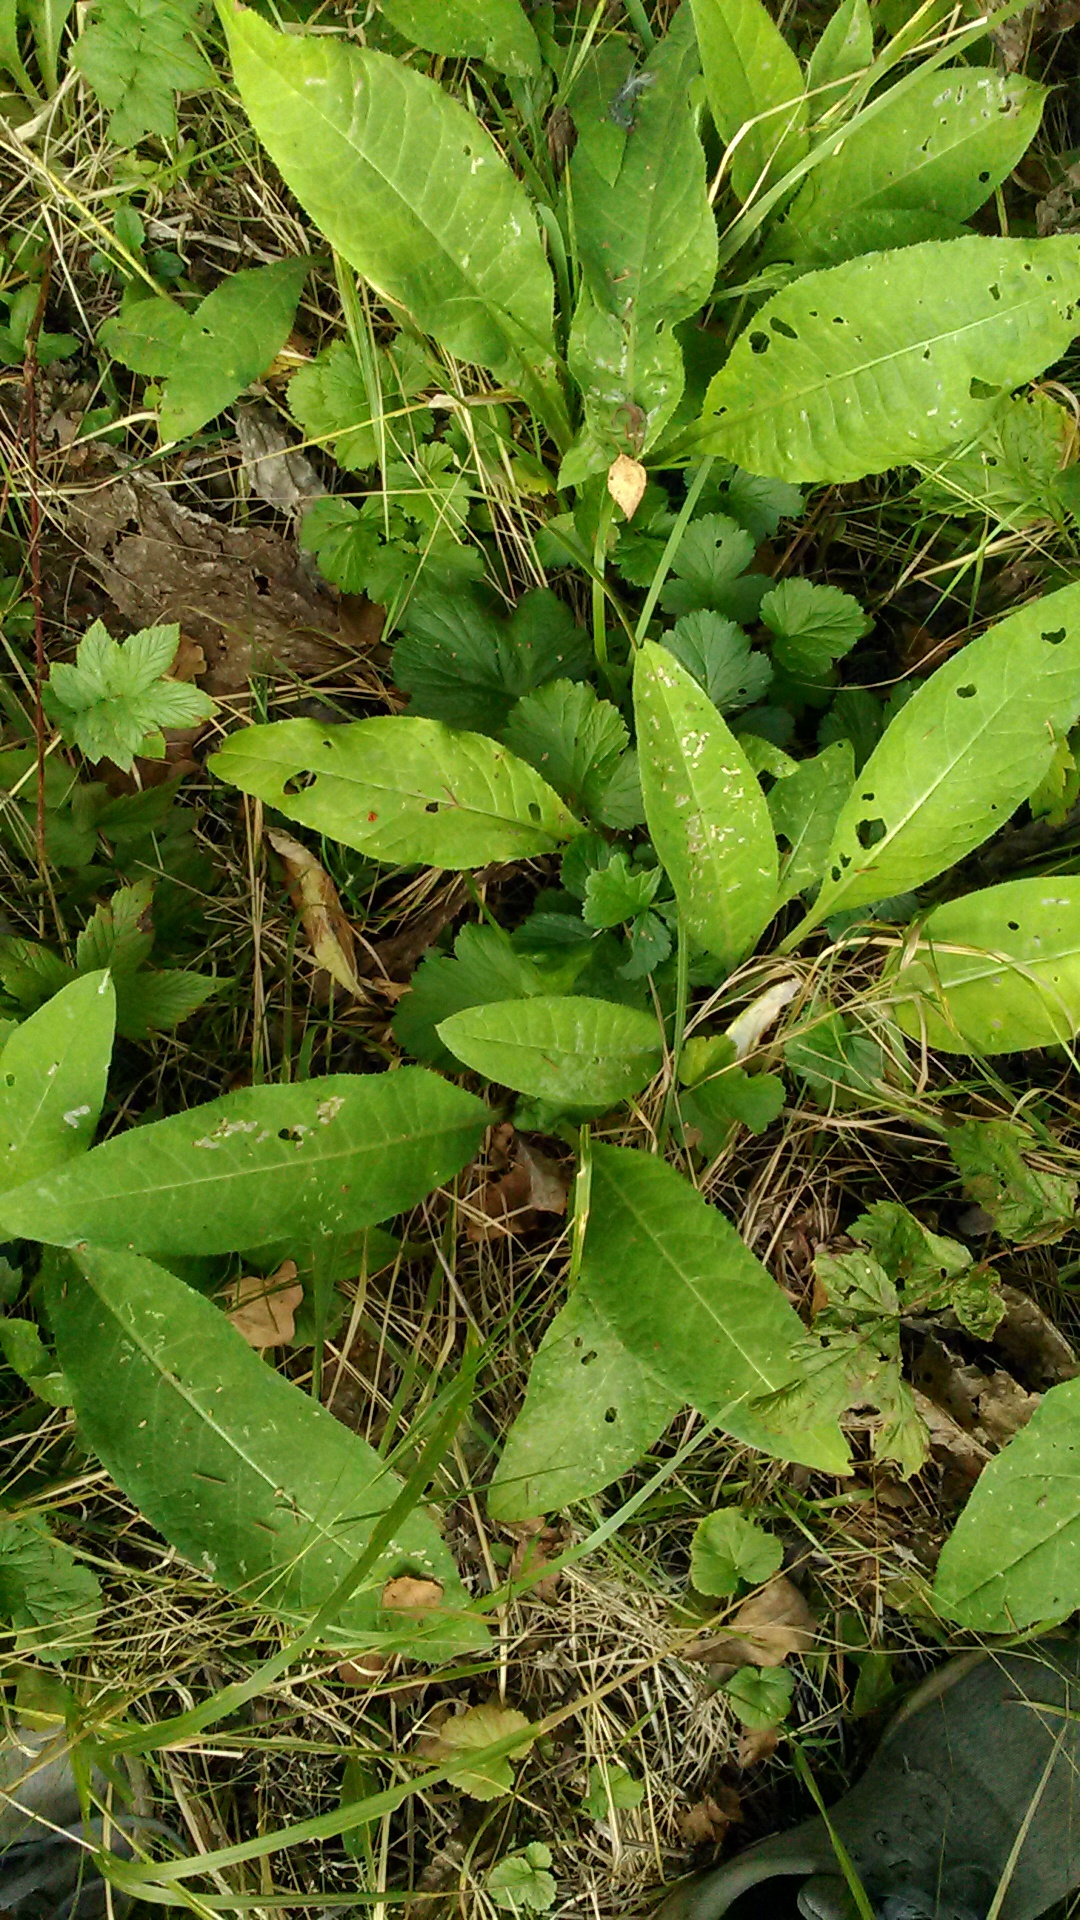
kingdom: Plantae
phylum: Tracheophyta
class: Magnoliopsida
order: Asterales
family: Asteraceae
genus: Cirsium
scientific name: Cirsium heterophyllum
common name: Melancholy thistle
